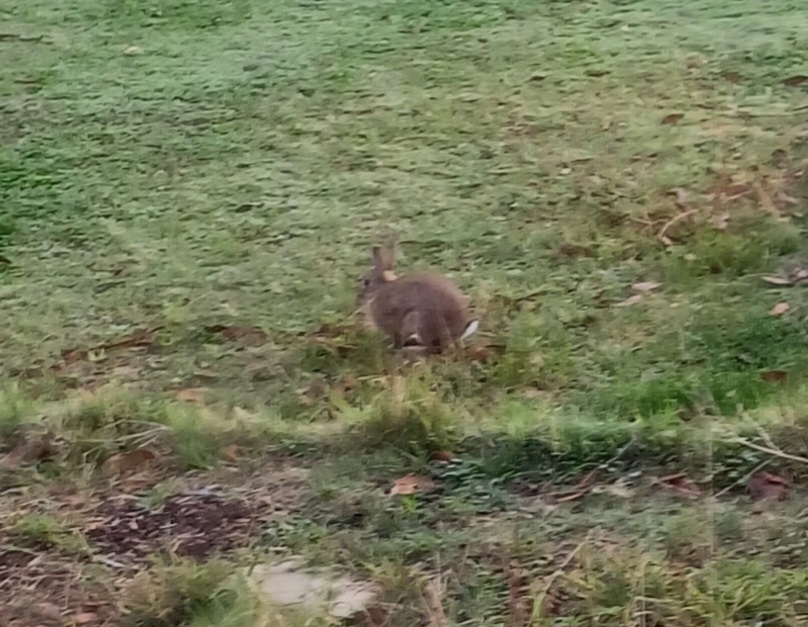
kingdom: Animalia
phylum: Chordata
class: Mammalia
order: Lagomorpha
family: Leporidae
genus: Oryctolagus
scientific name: Oryctolagus cuniculus
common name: European rabbit
